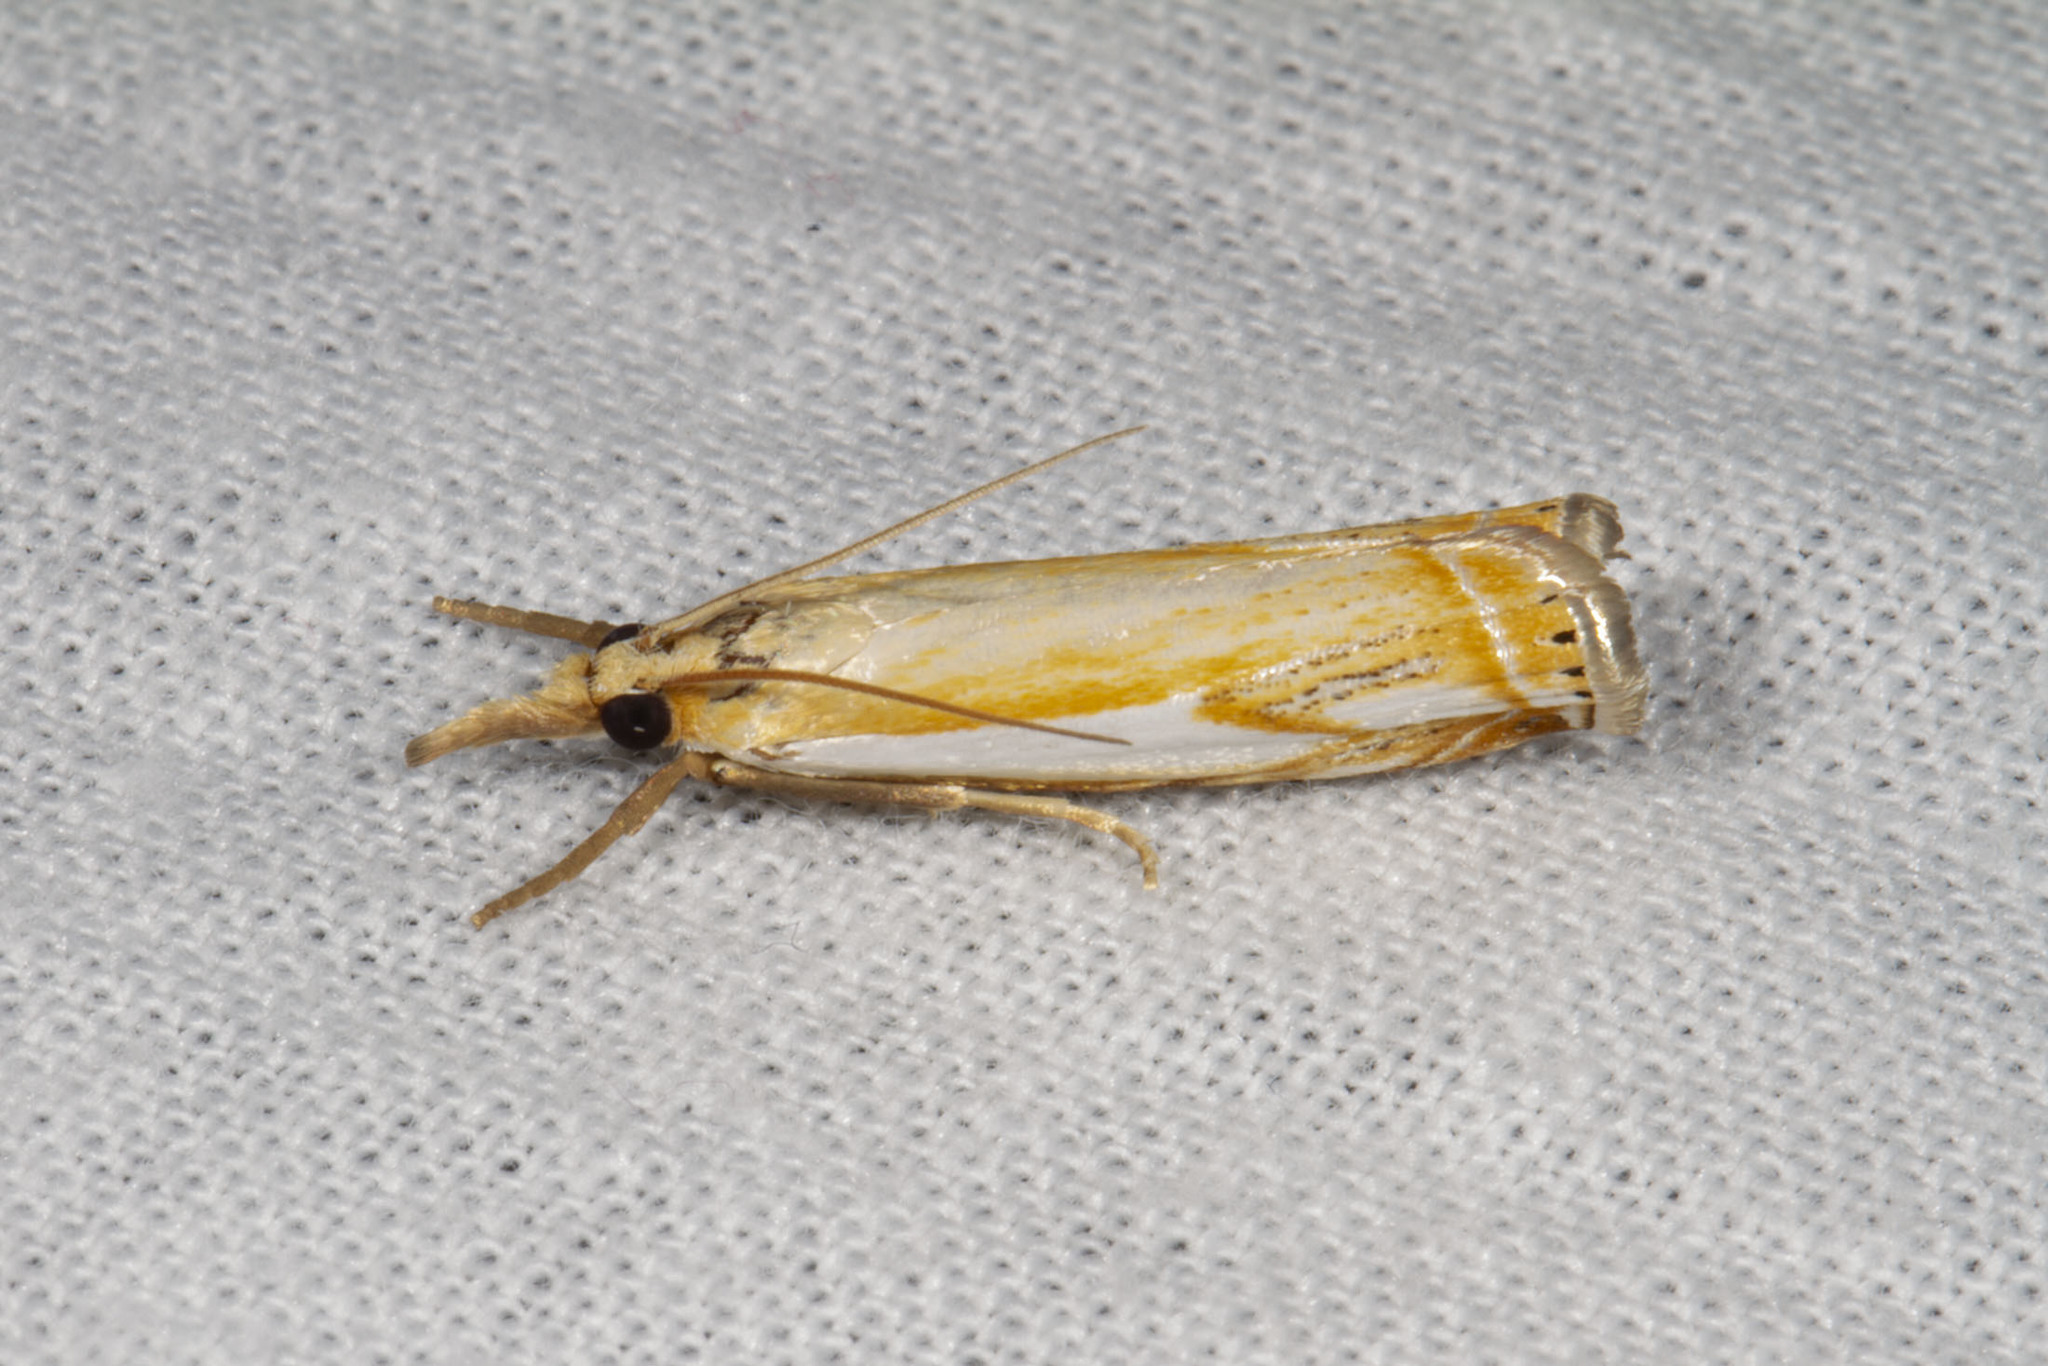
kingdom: Animalia
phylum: Arthropoda
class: Insecta
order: Lepidoptera
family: Crambidae
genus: Crambus
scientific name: Crambus agitatellus
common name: Double-banded grass-veneer
